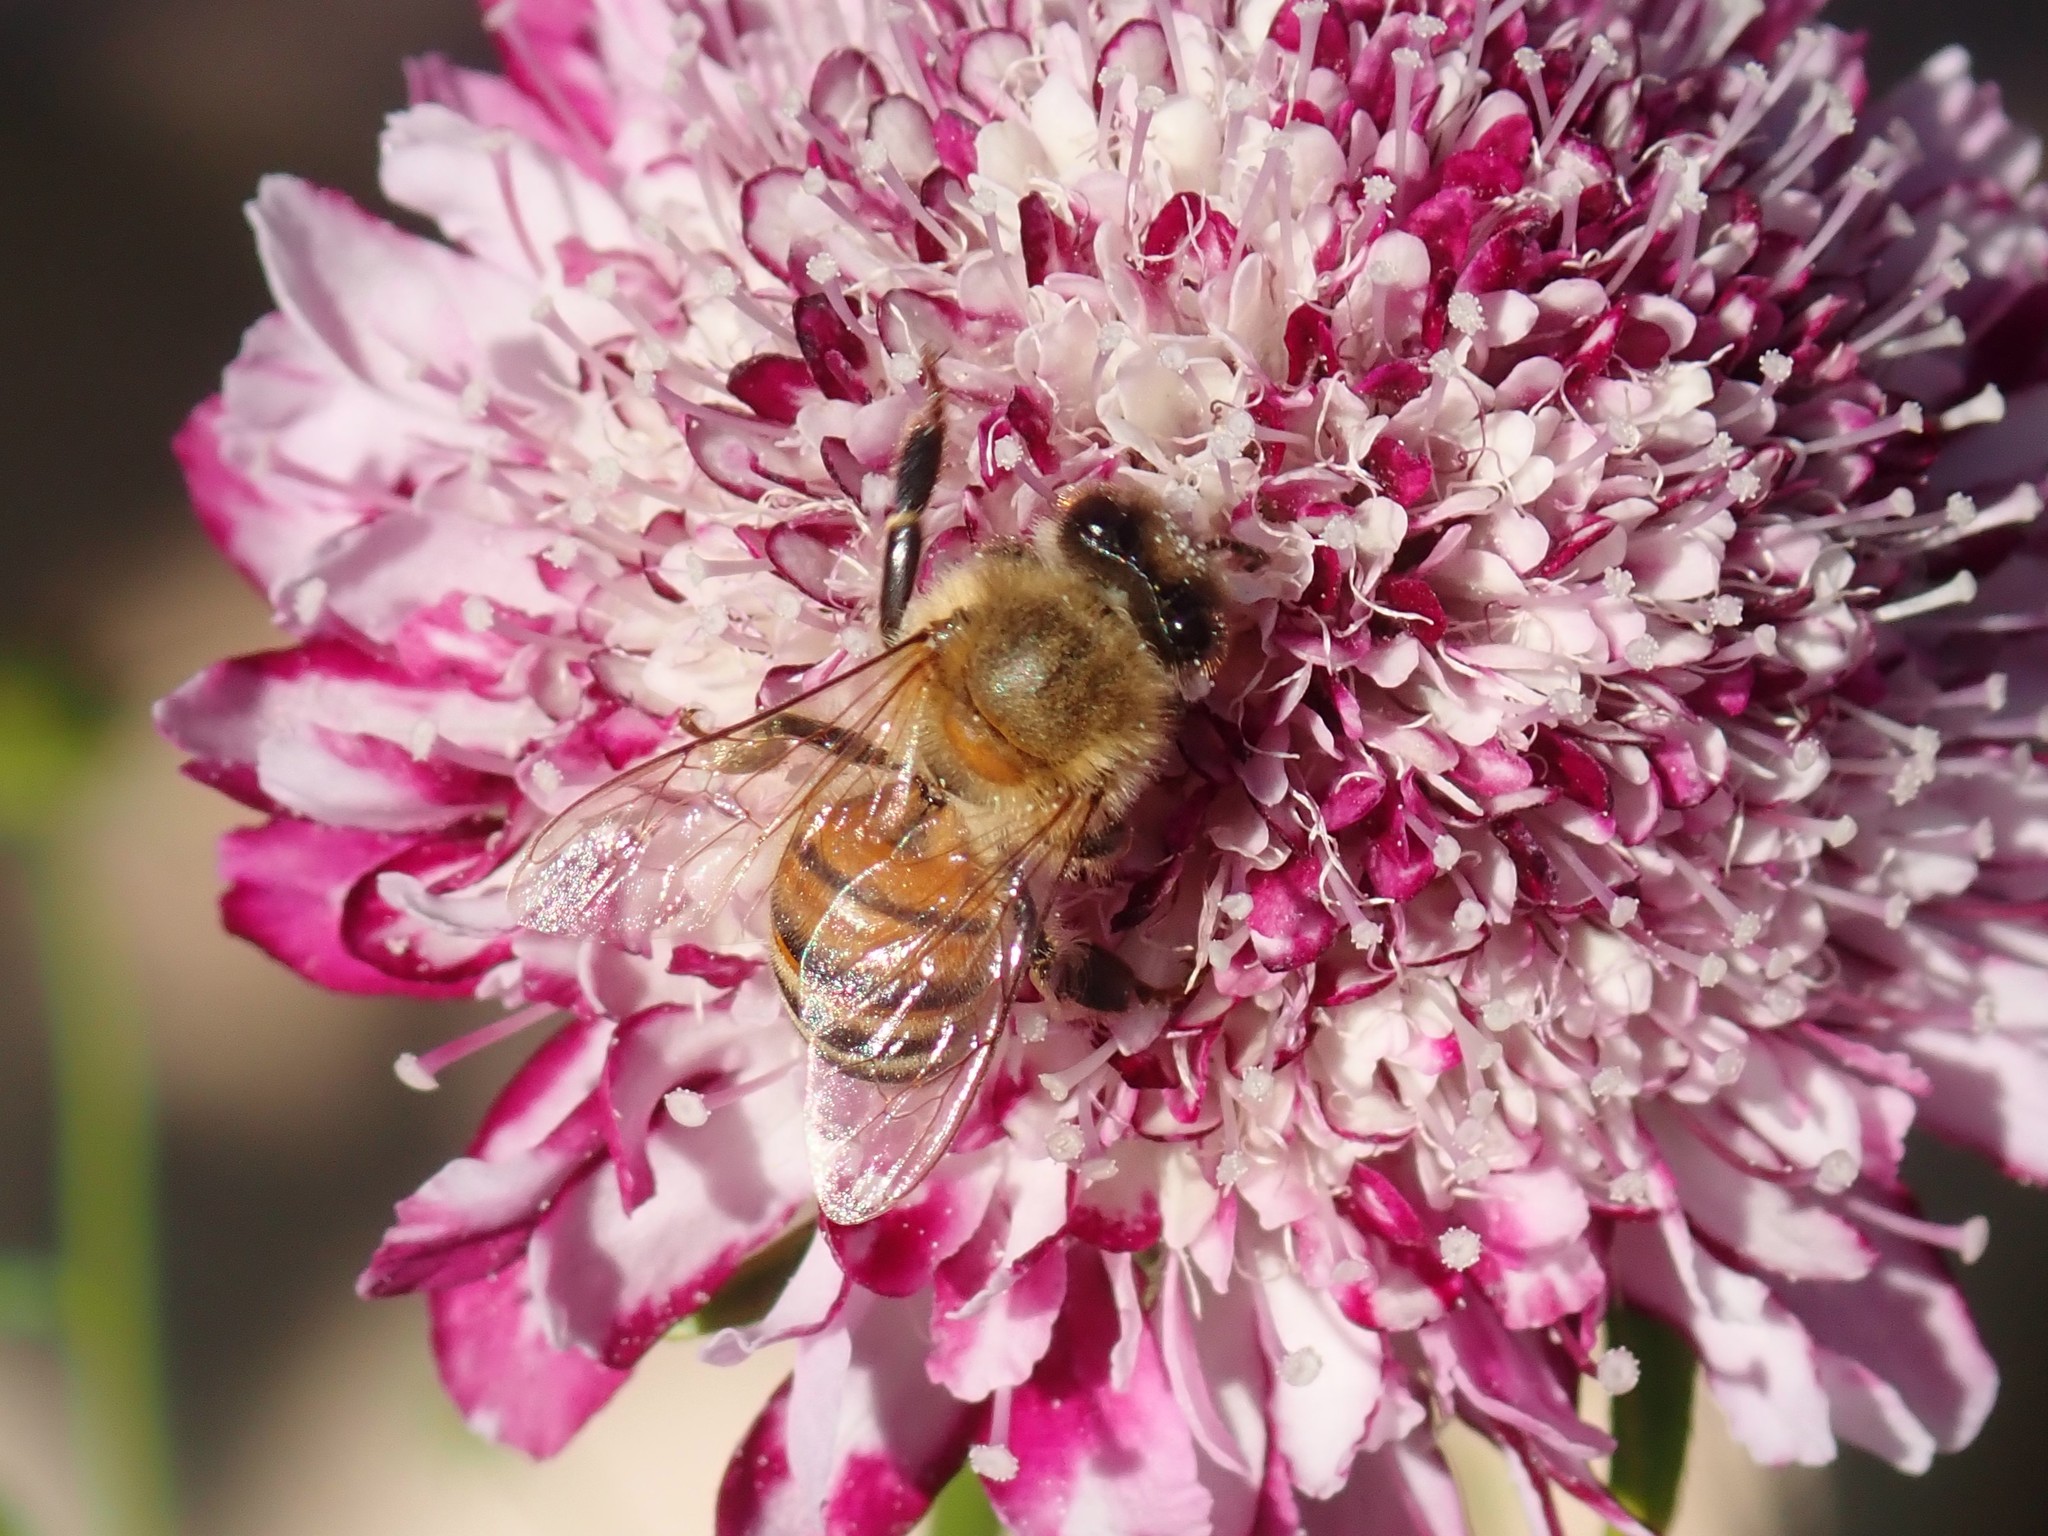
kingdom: Animalia
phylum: Arthropoda
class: Insecta
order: Hymenoptera
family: Apidae
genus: Apis
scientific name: Apis mellifera
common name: Honey bee
